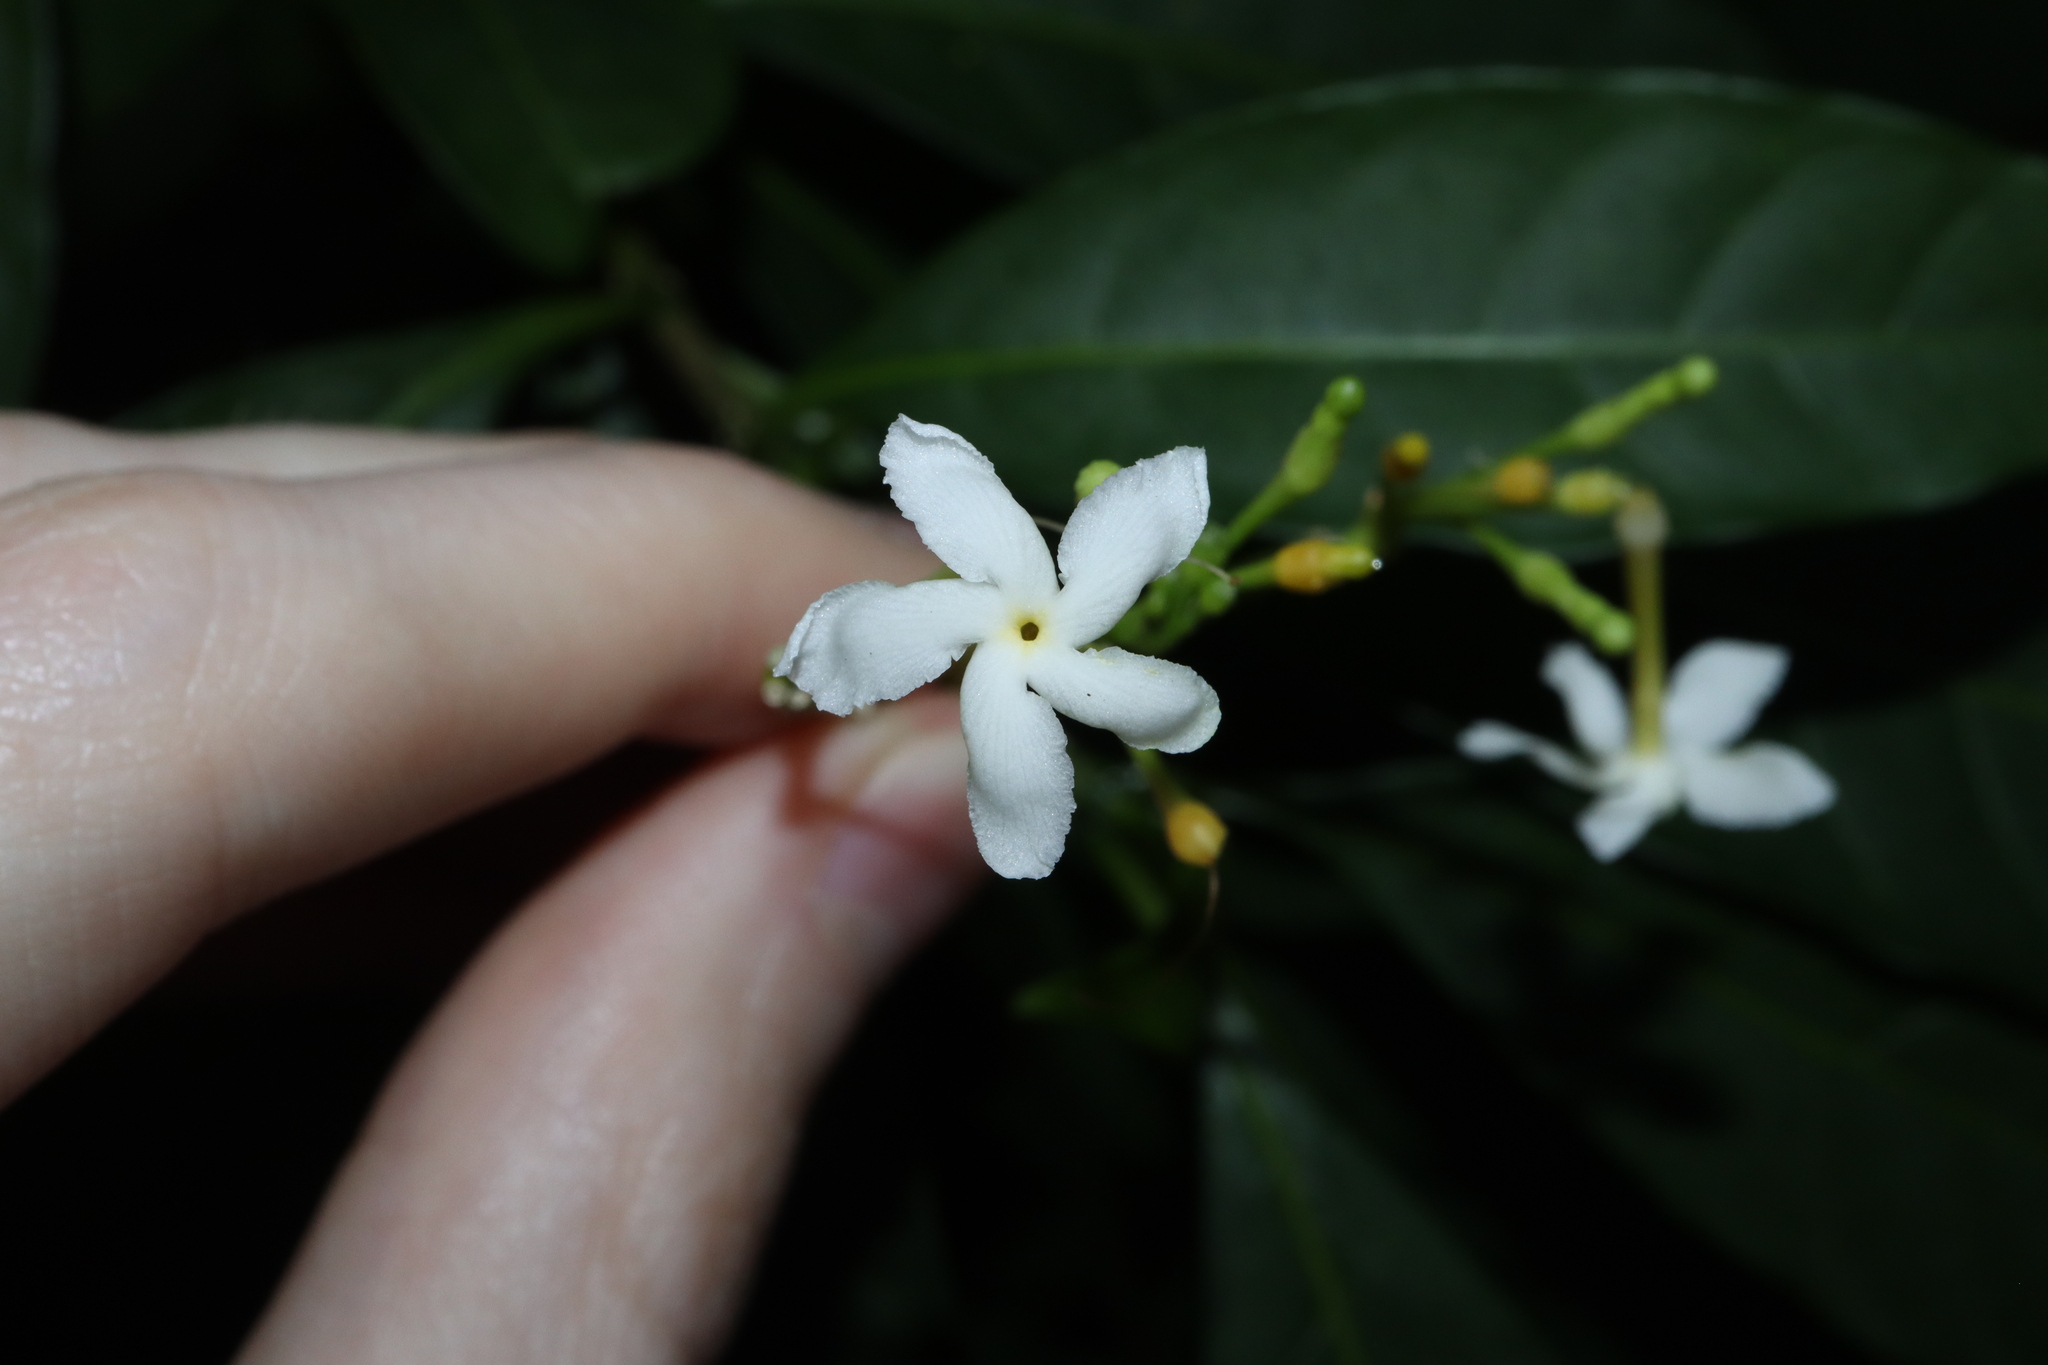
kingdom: Plantae
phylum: Tracheophyta
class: Magnoliopsida
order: Gentianales
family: Apocynaceae
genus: Tabernaemontana
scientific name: Tabernaemontana pandacaqui
